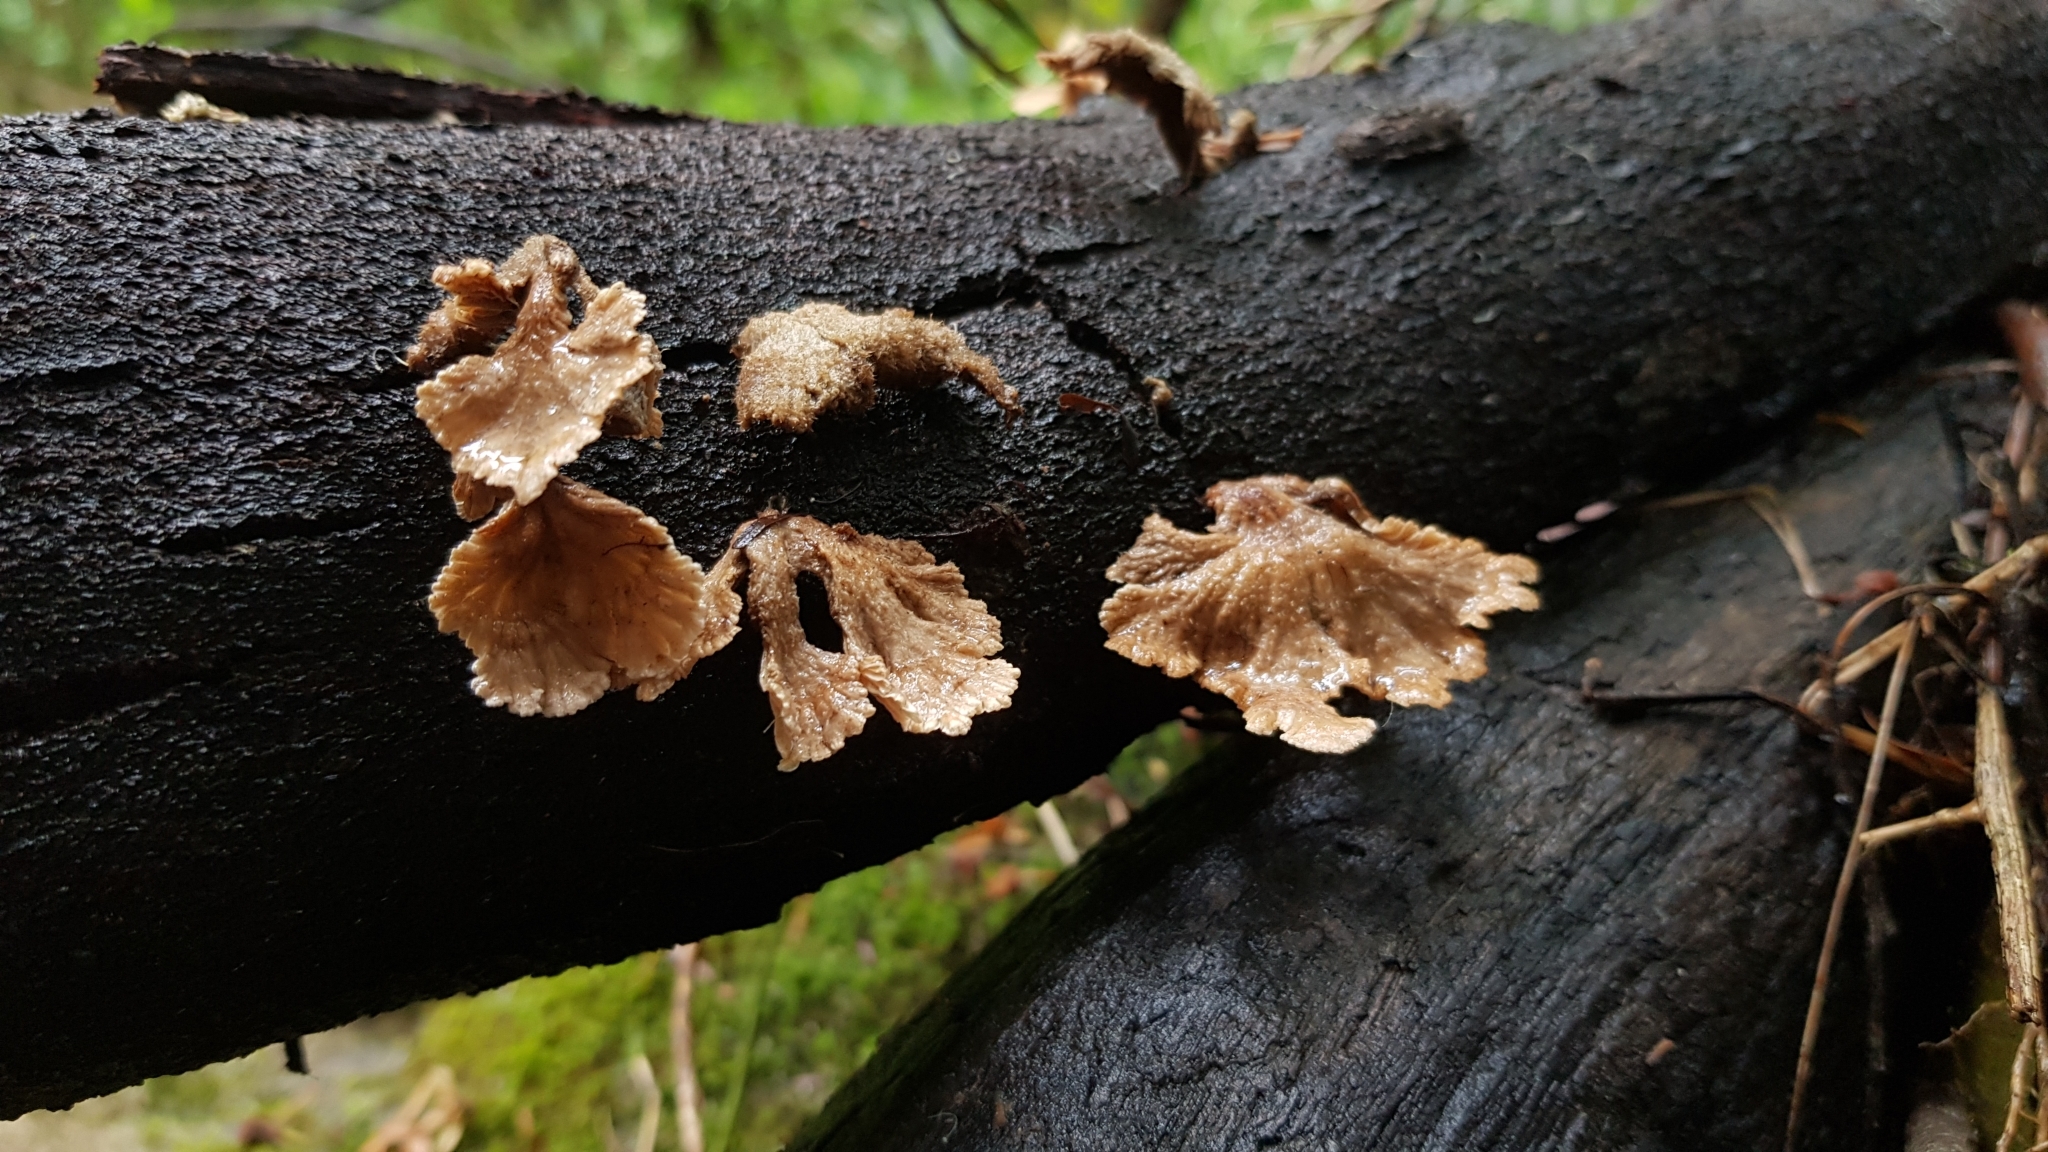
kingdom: Fungi
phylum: Basidiomycota
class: Agaricomycetes
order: Agaricales
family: Schizophyllaceae
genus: Schizophyllum
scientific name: Schizophyllum commune
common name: Common porecrust
